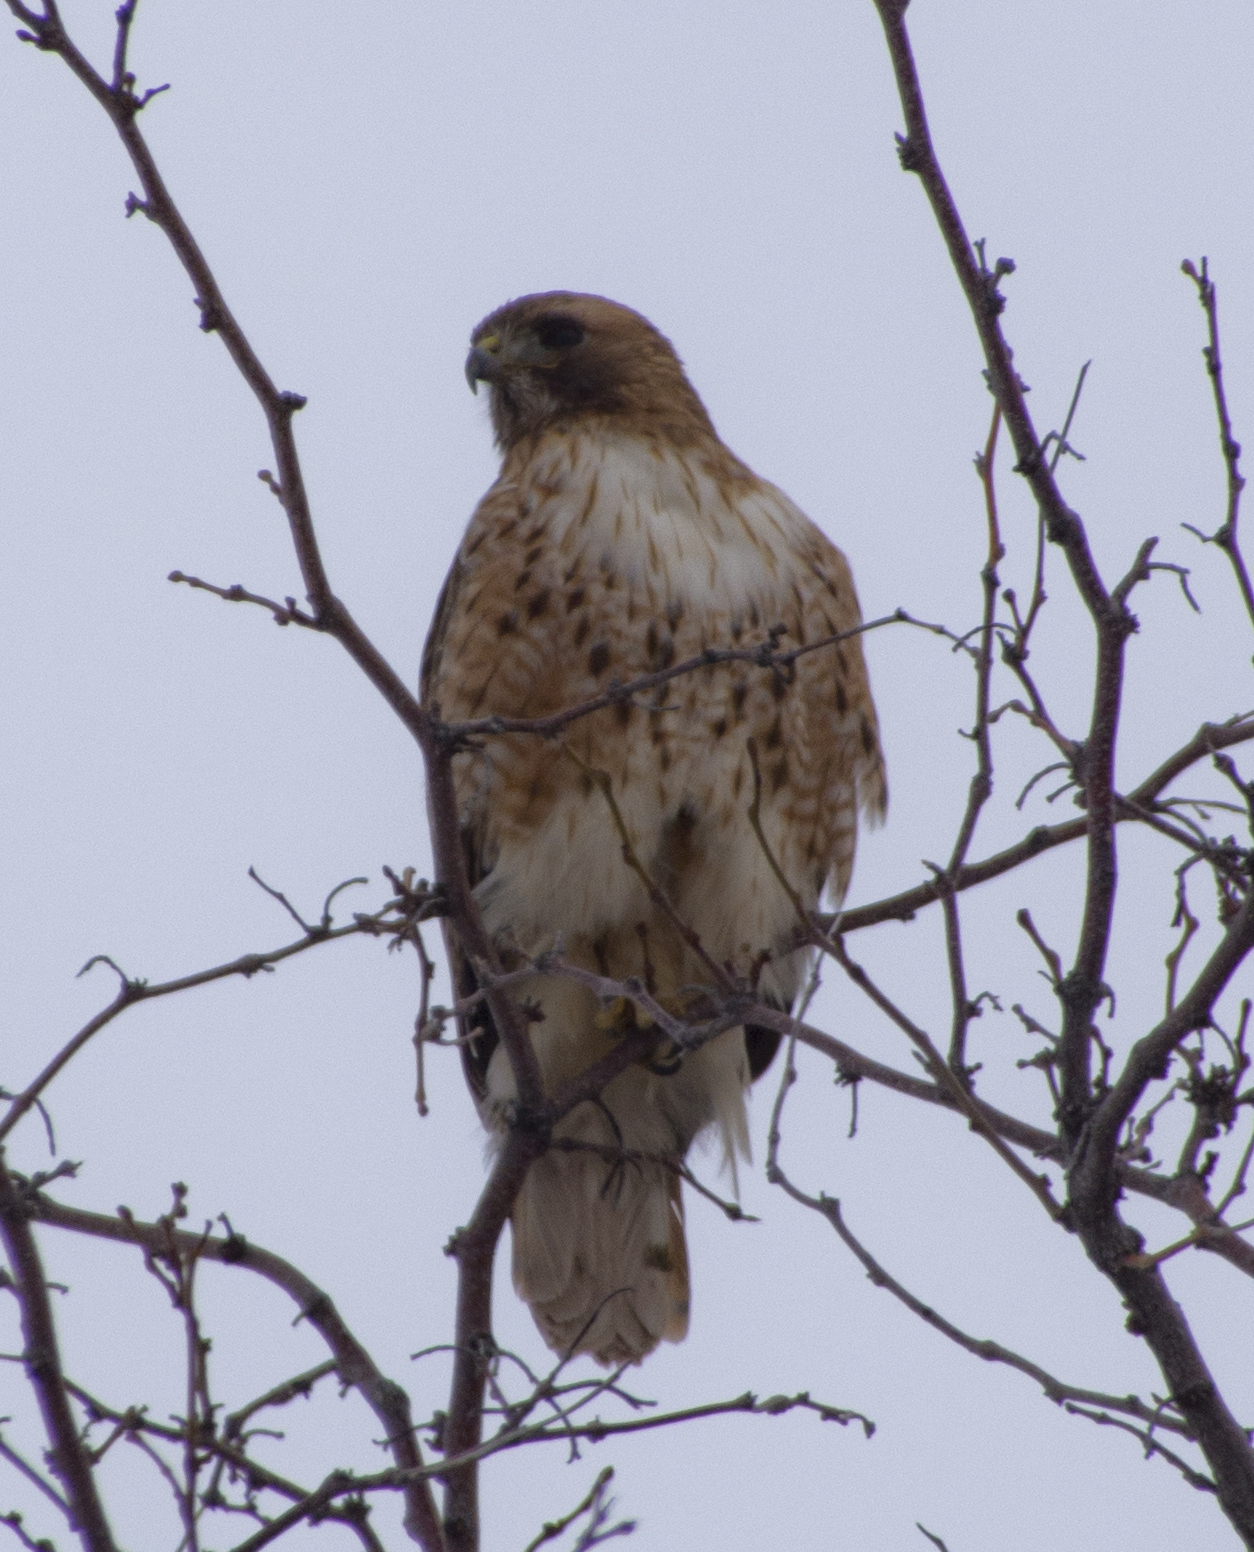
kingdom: Animalia
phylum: Chordata
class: Aves
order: Accipitriformes
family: Accipitridae
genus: Buteo
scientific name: Buteo jamaicensis
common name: Red-tailed hawk
